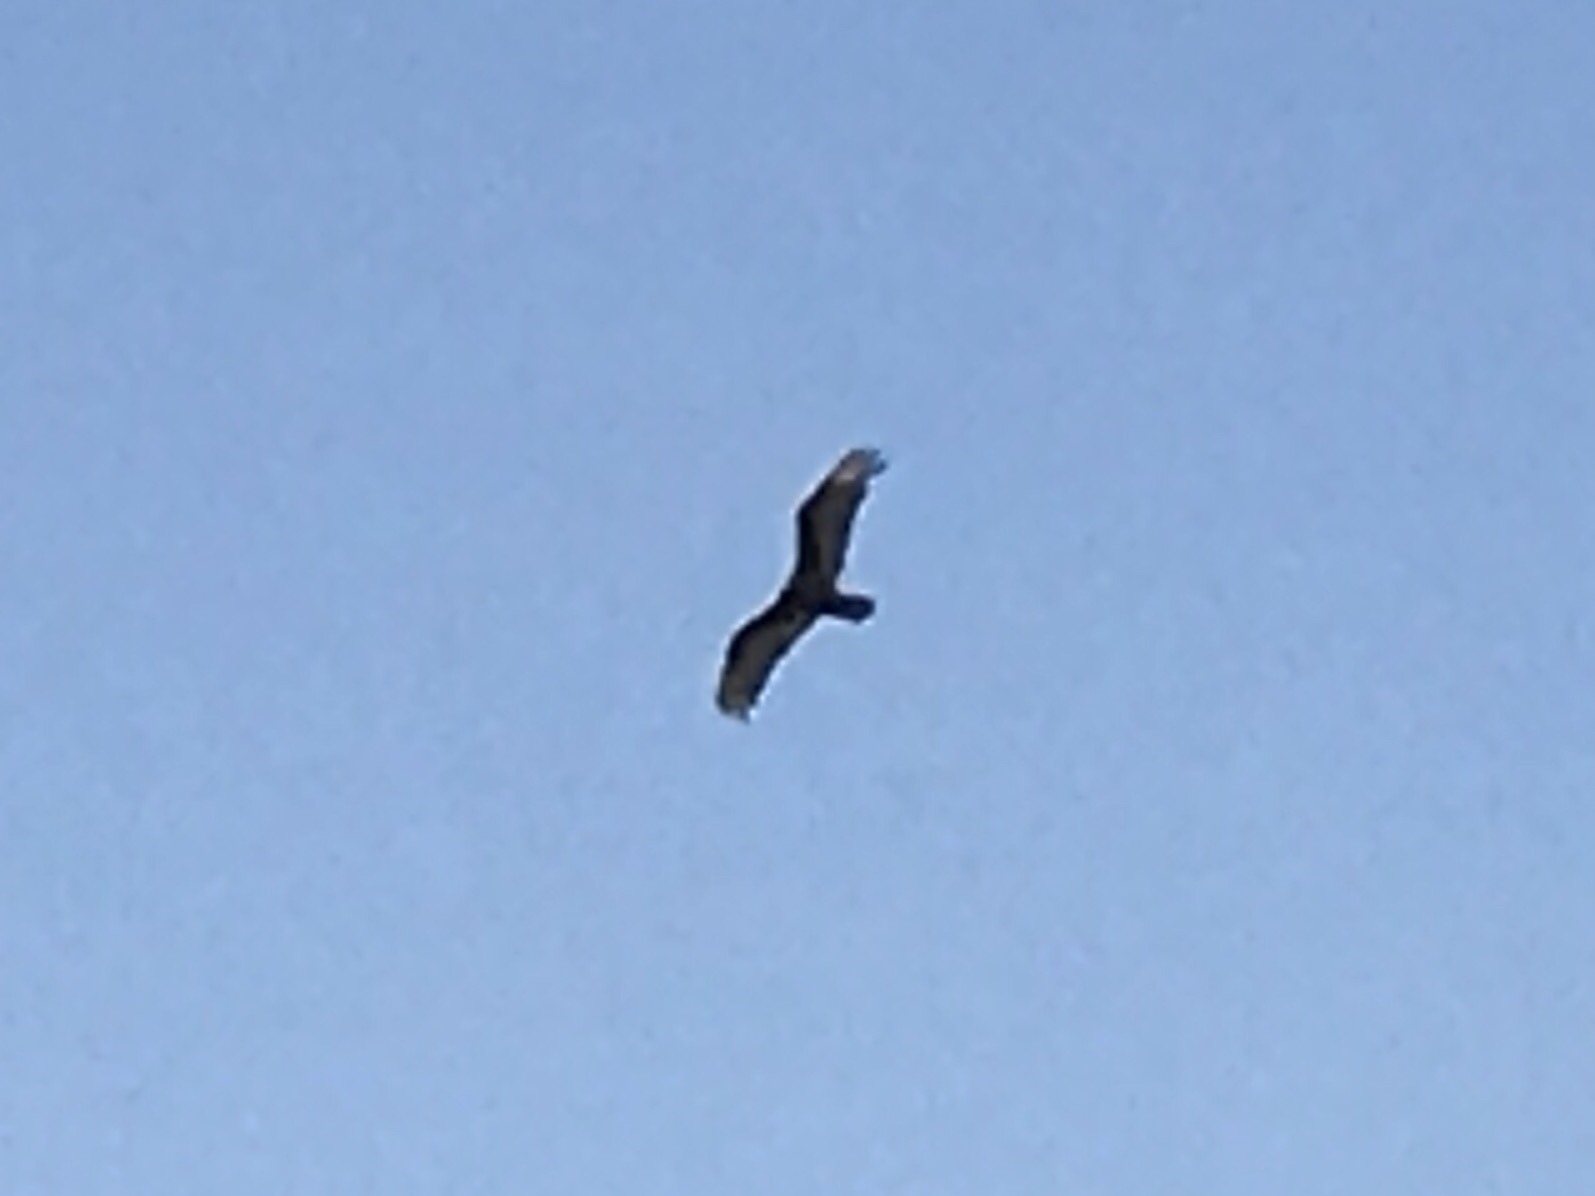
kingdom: Animalia
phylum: Chordata
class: Aves
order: Accipitriformes
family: Cathartidae
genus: Cathartes
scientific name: Cathartes aura
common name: Turkey vulture
